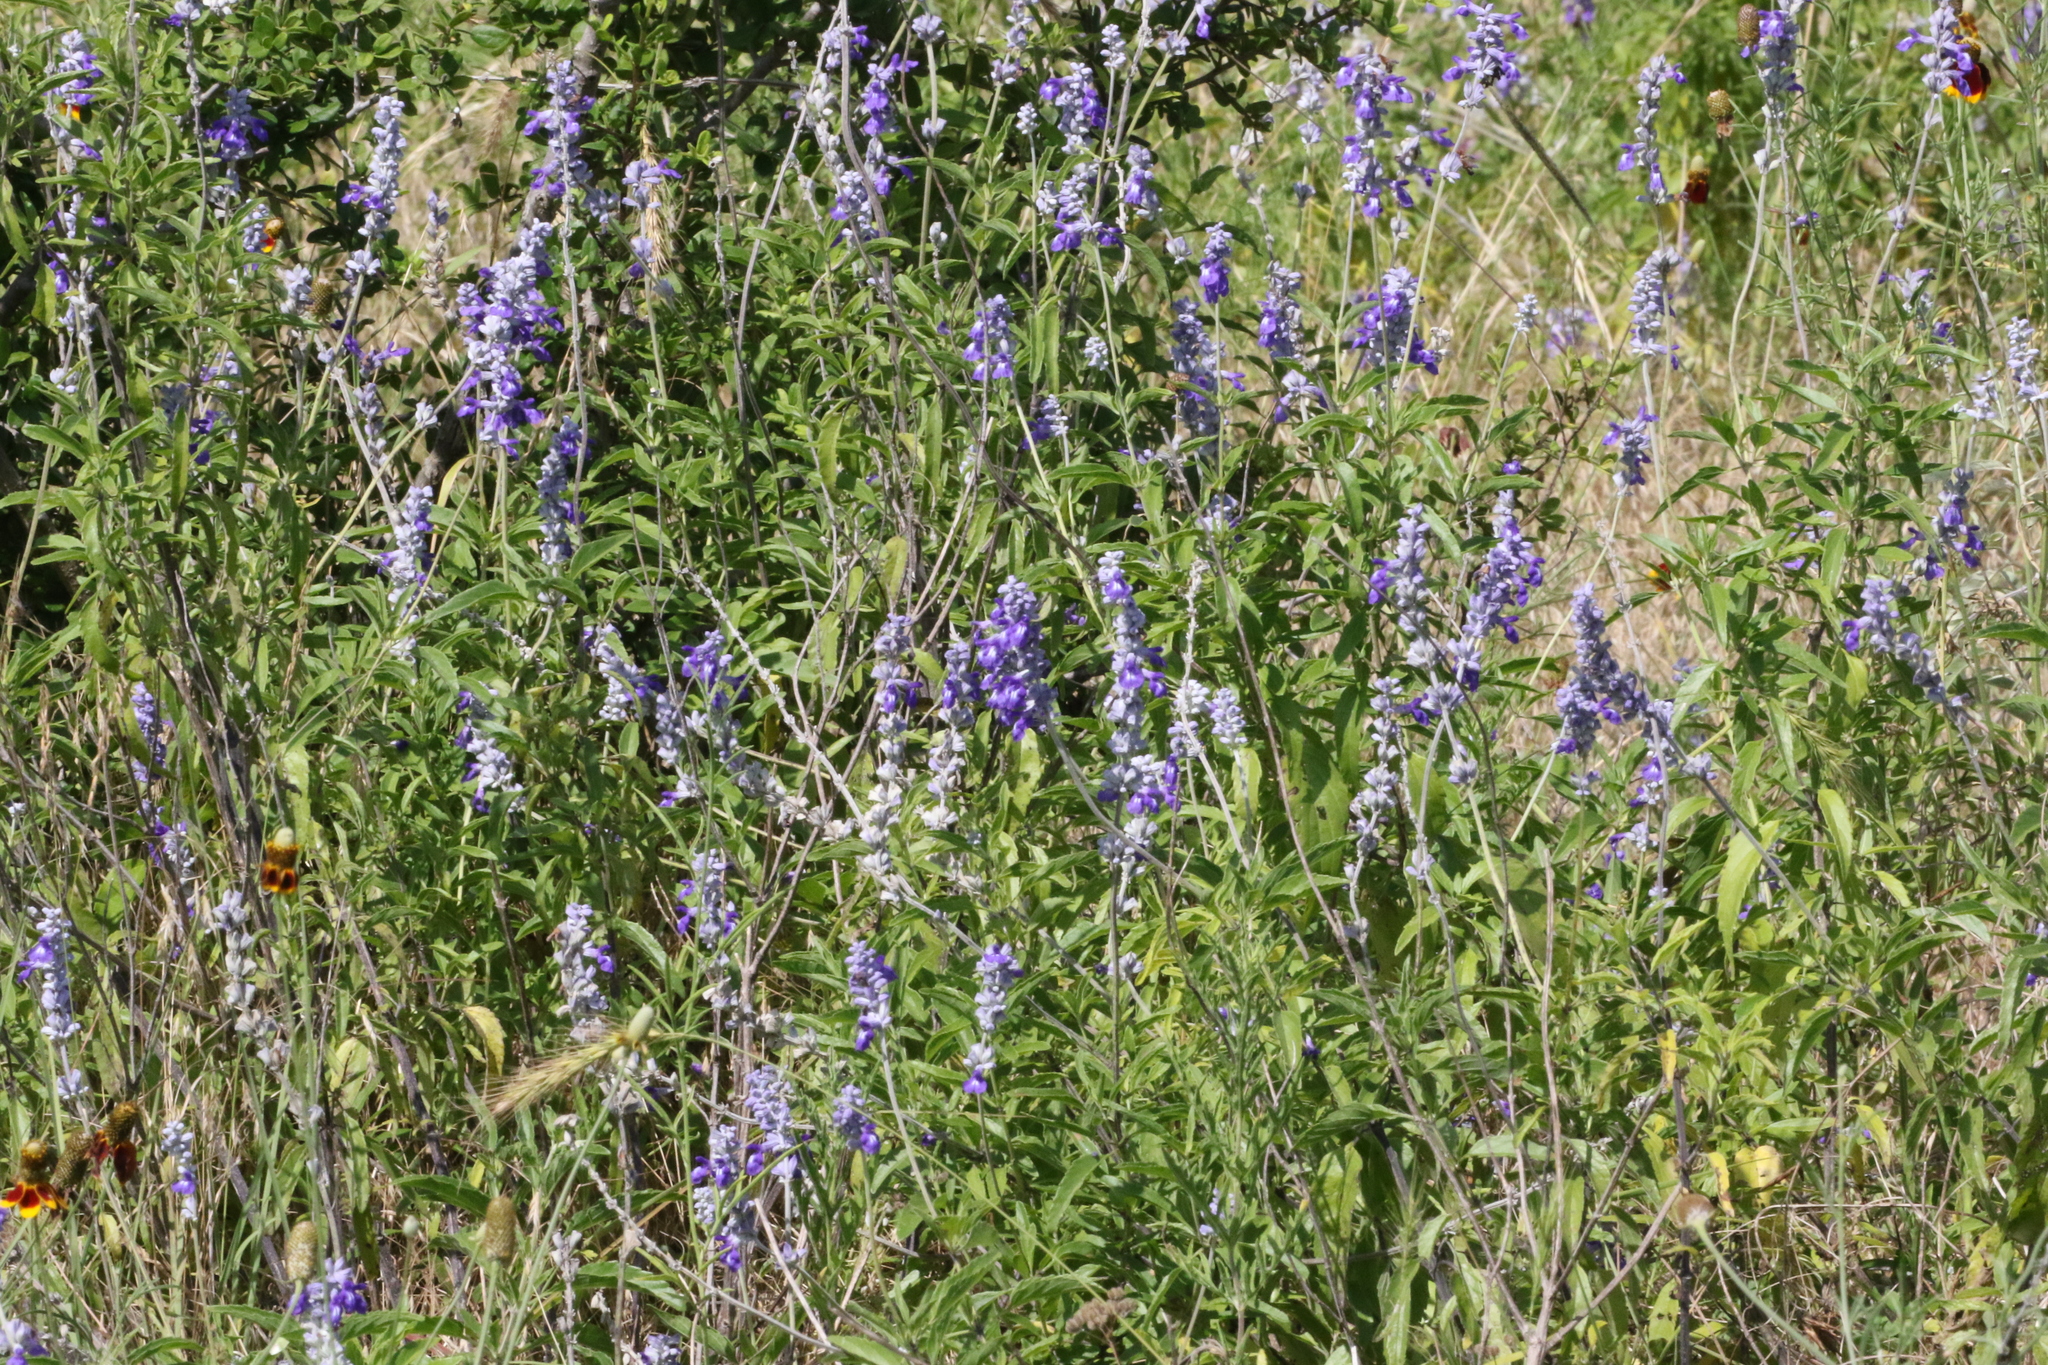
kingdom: Plantae
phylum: Tracheophyta
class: Magnoliopsida
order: Lamiales
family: Lamiaceae
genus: Salvia
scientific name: Salvia farinacea
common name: Mealy sage
